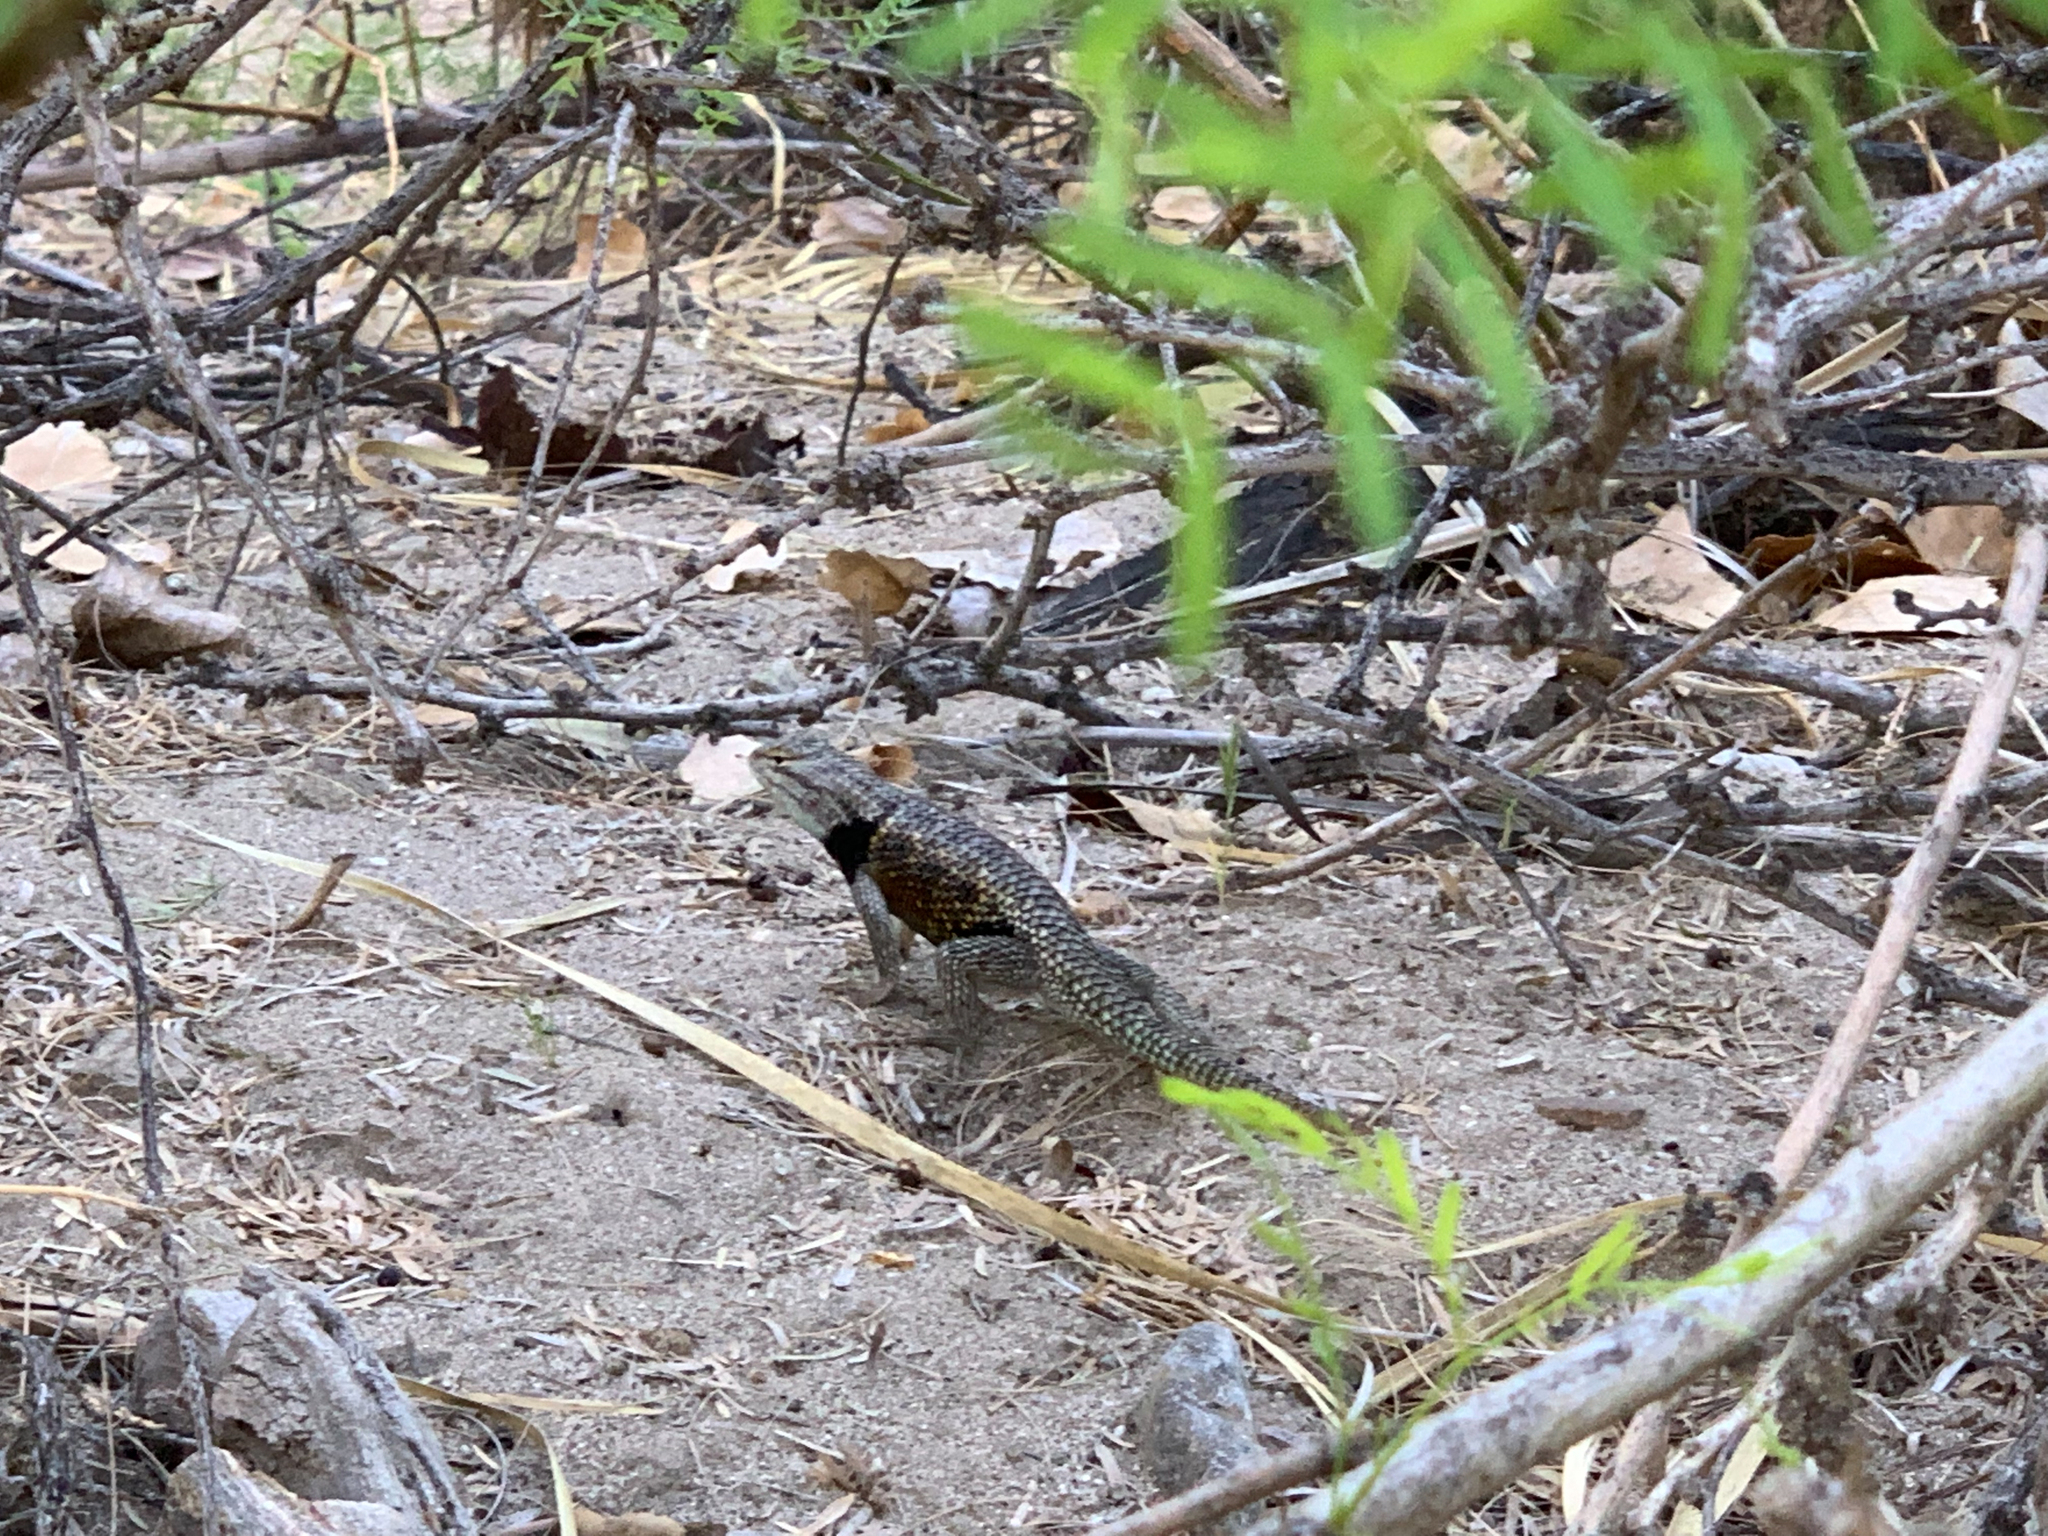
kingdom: Animalia
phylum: Chordata
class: Squamata
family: Phrynosomatidae
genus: Sceloporus
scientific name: Sceloporus magister
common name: Desert spiny lizard
